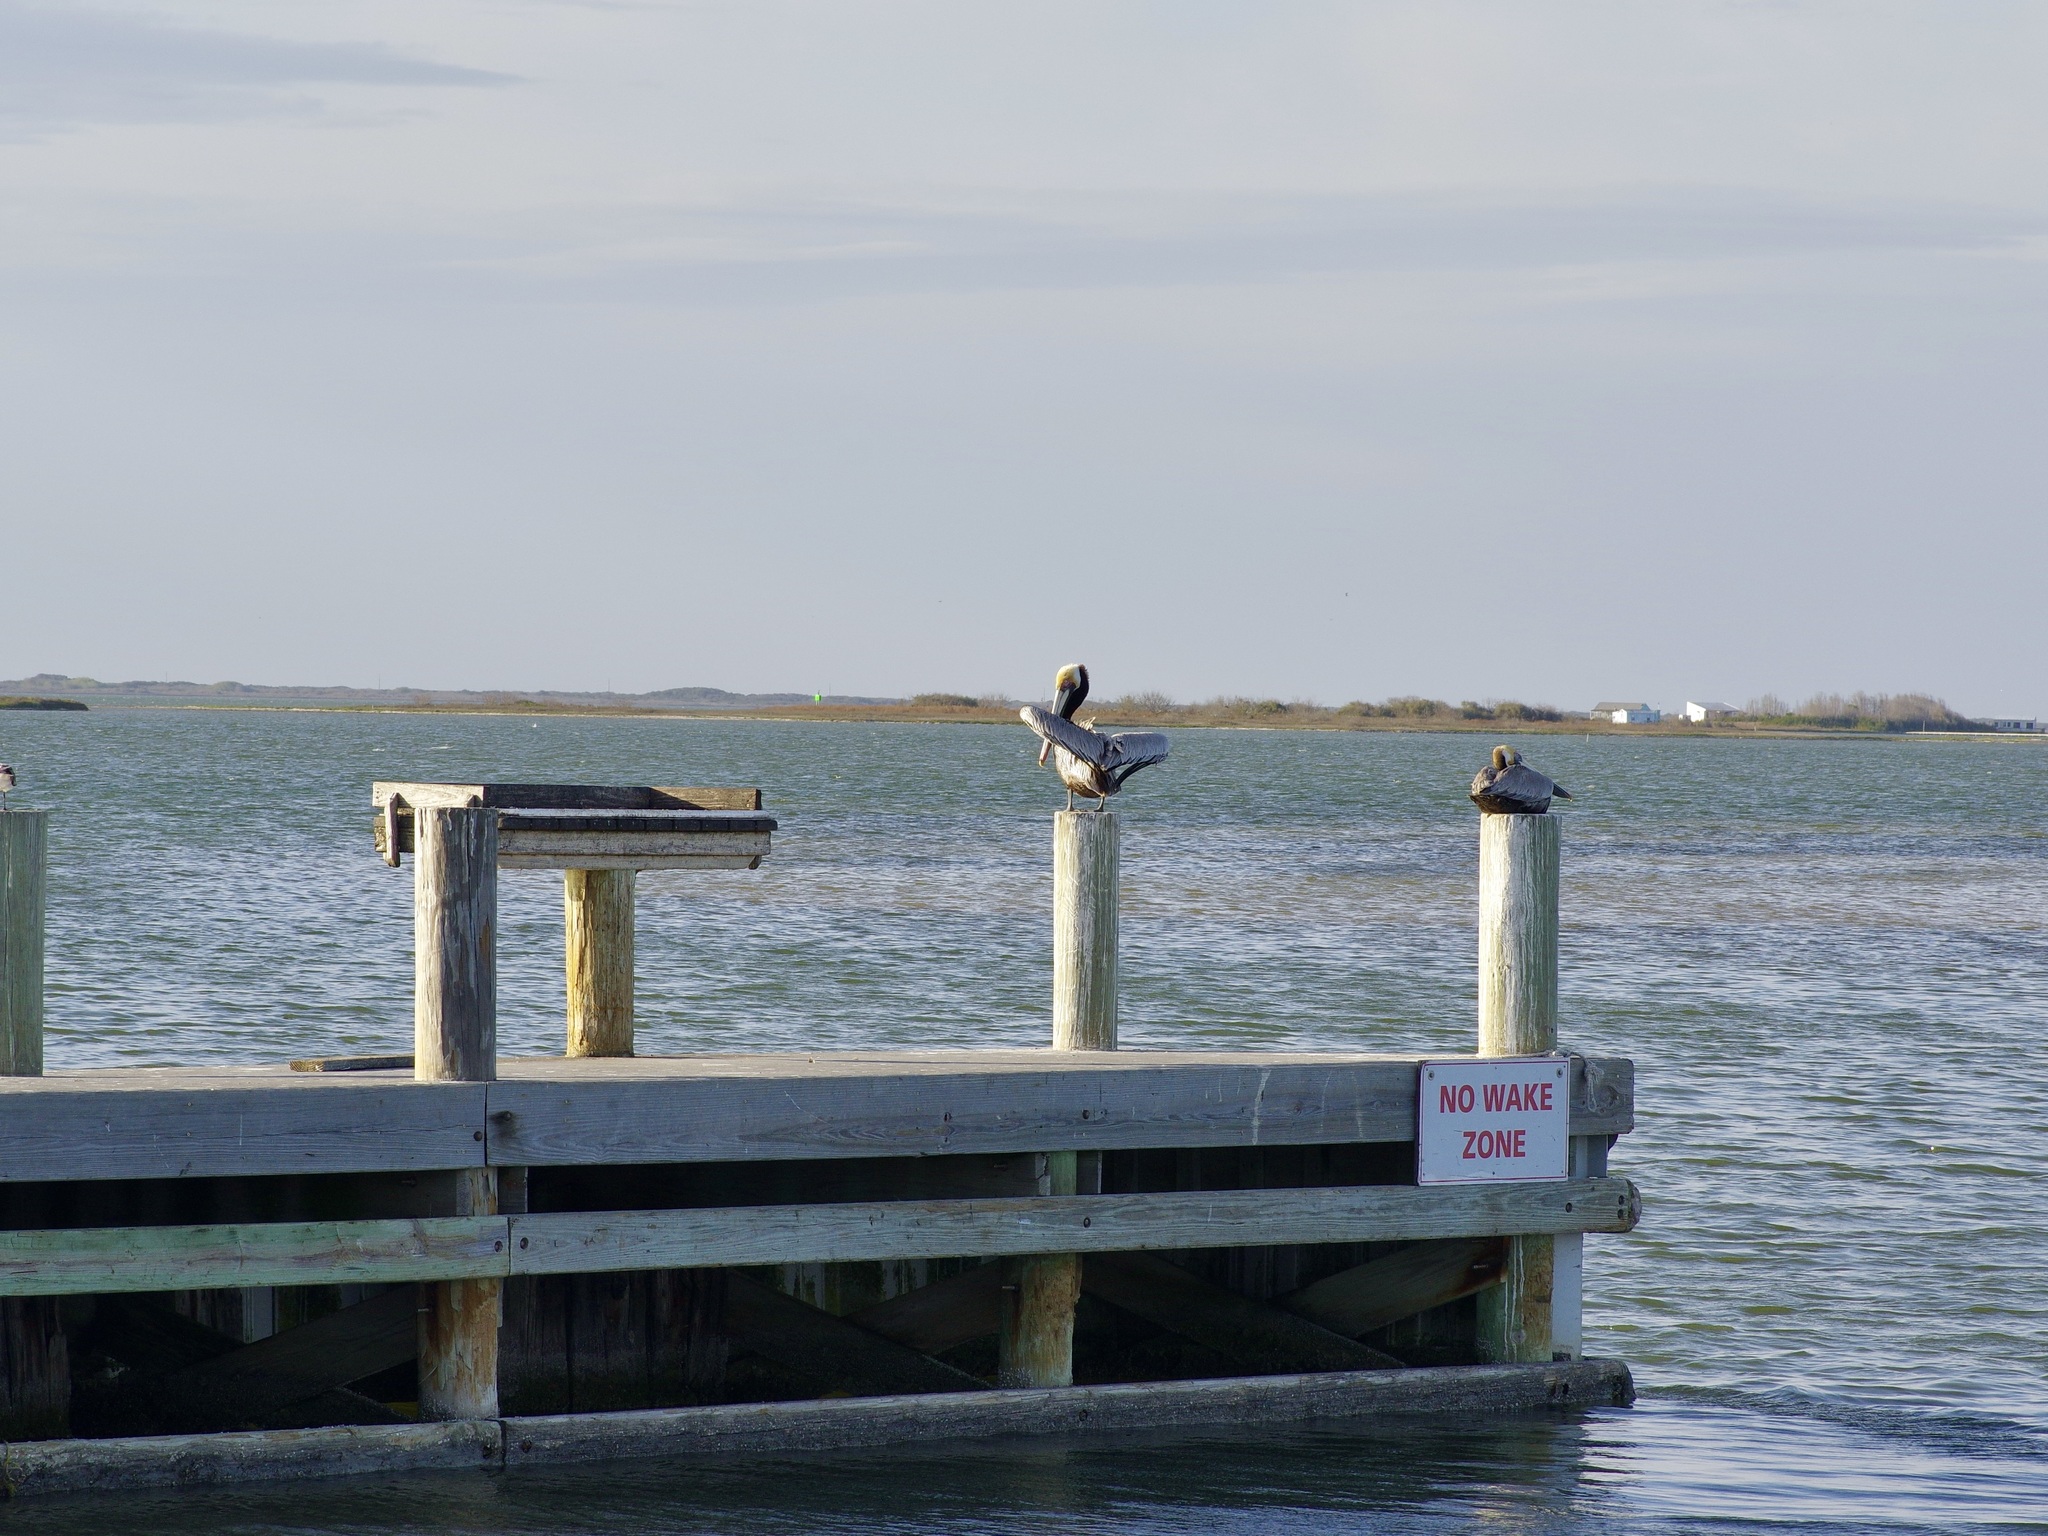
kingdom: Animalia
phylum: Chordata
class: Aves
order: Pelecaniformes
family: Pelecanidae
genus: Pelecanus
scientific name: Pelecanus occidentalis
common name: Brown pelican
